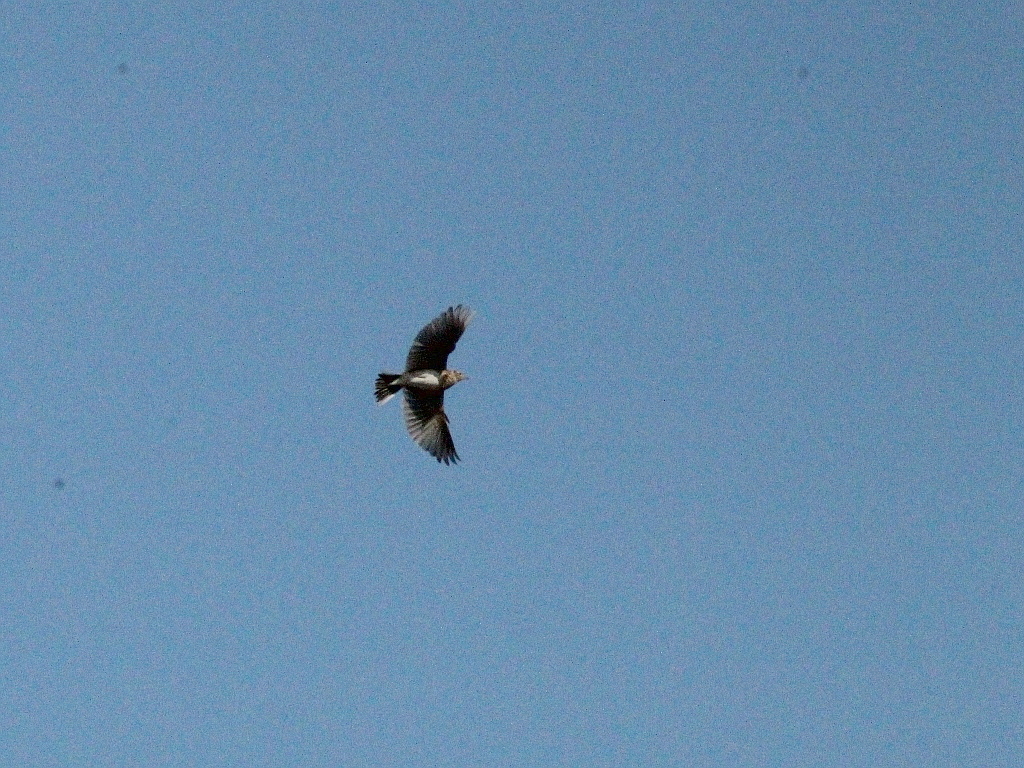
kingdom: Animalia
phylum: Chordata
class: Aves
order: Passeriformes
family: Alaudidae
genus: Alauda
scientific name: Alauda arvensis
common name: Eurasian skylark
